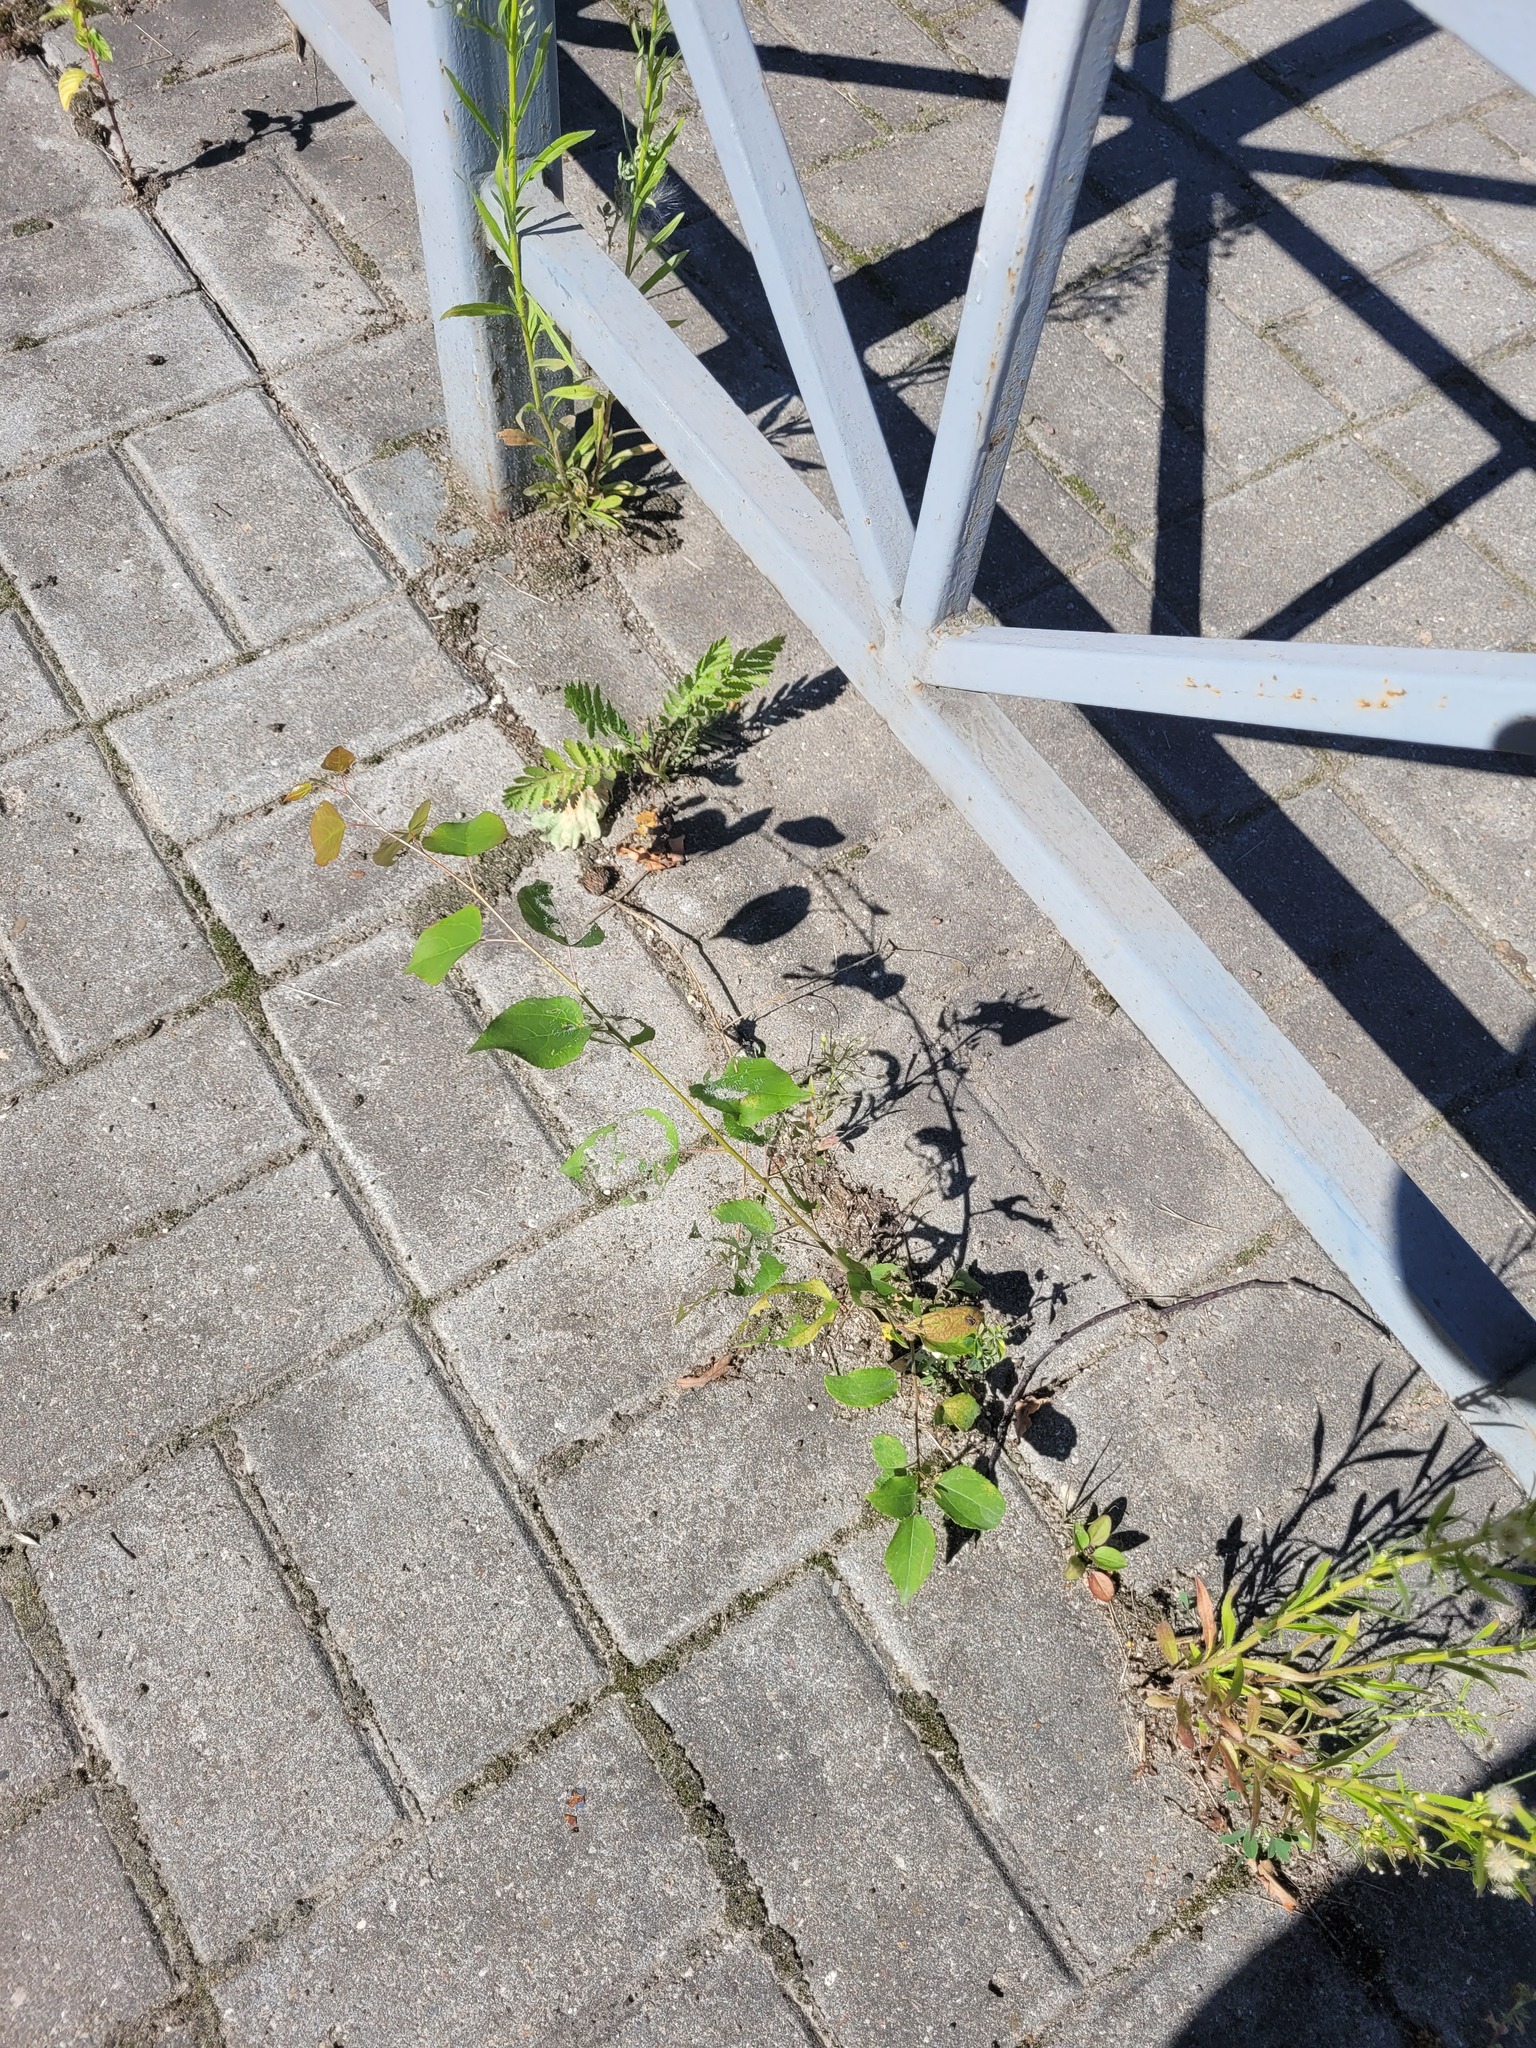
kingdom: Plantae
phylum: Tracheophyta
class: Magnoliopsida
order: Malpighiales
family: Salicaceae
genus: Populus
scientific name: Populus tremula
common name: European aspen
